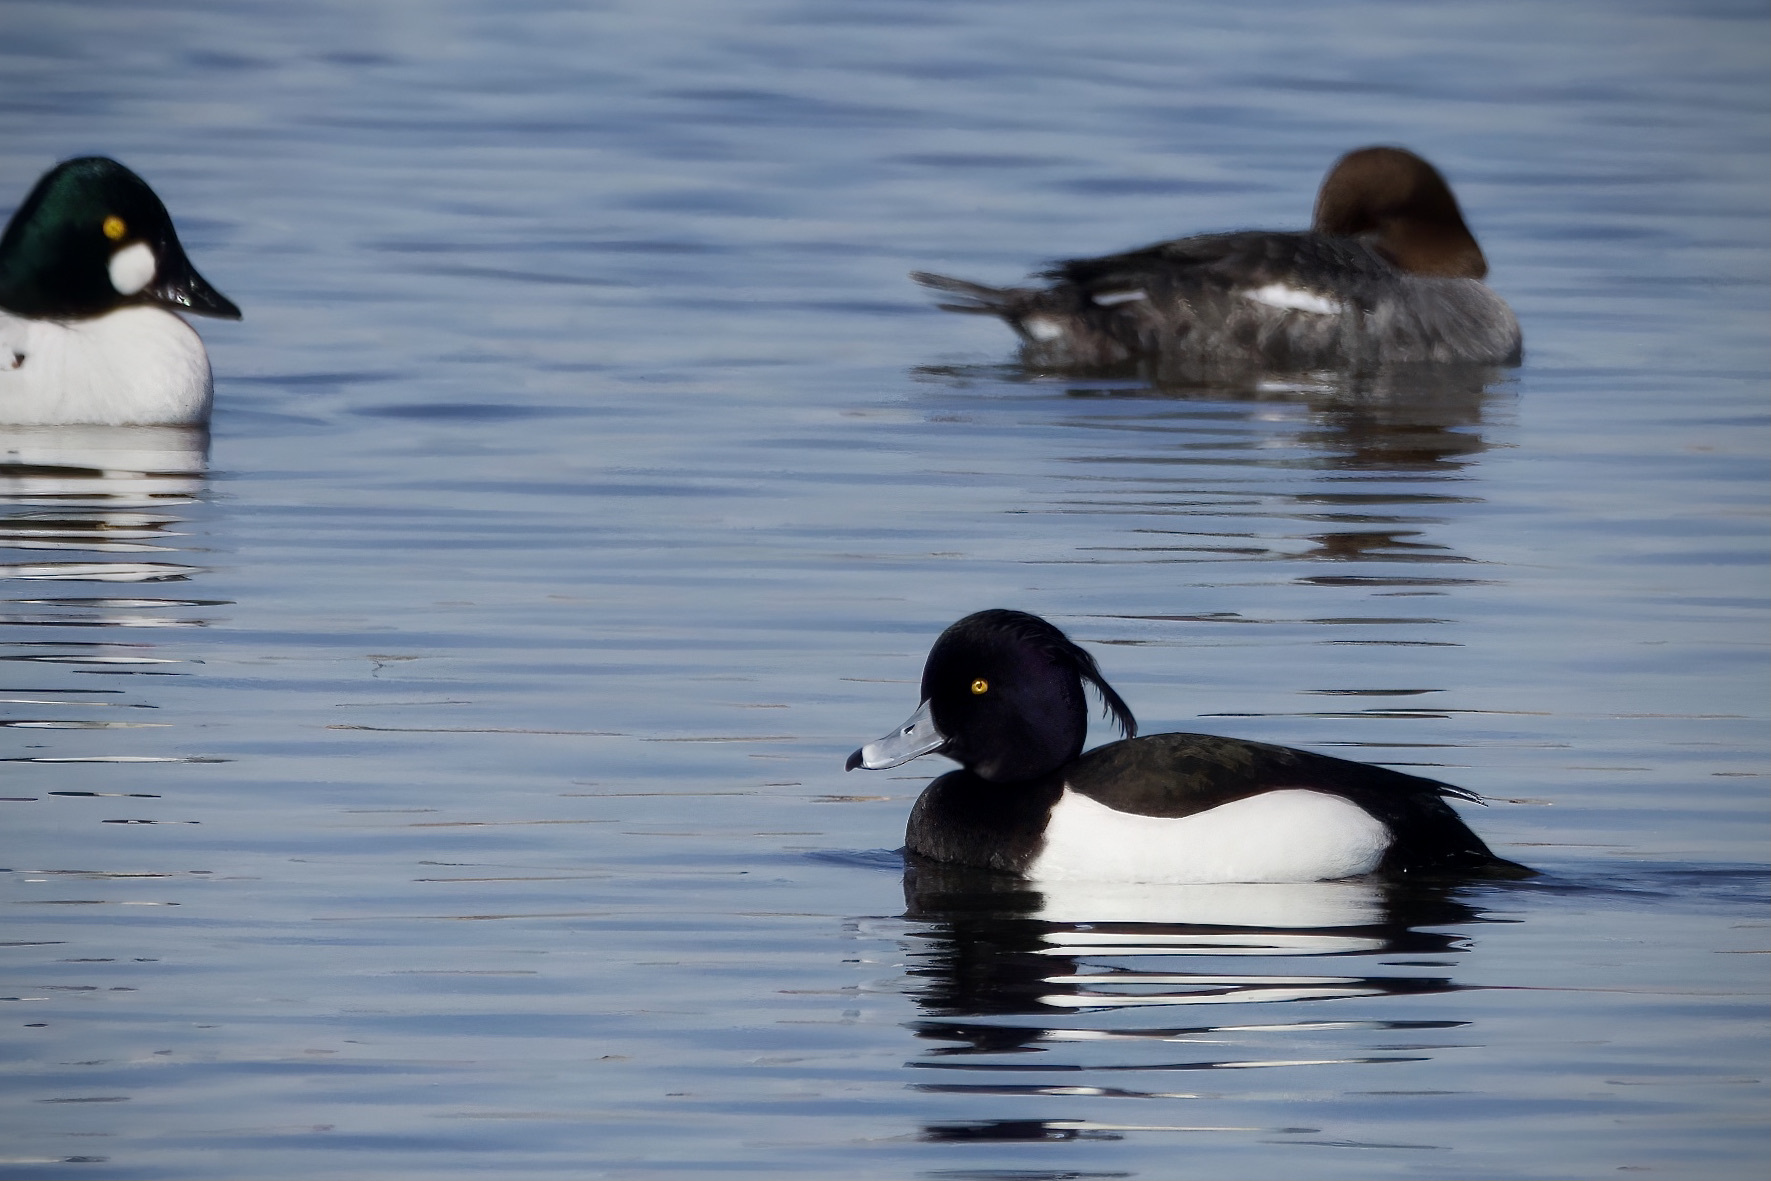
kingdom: Animalia
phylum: Chordata
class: Aves
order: Anseriformes
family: Anatidae
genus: Aythya
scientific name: Aythya fuligula
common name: Tufted duck
